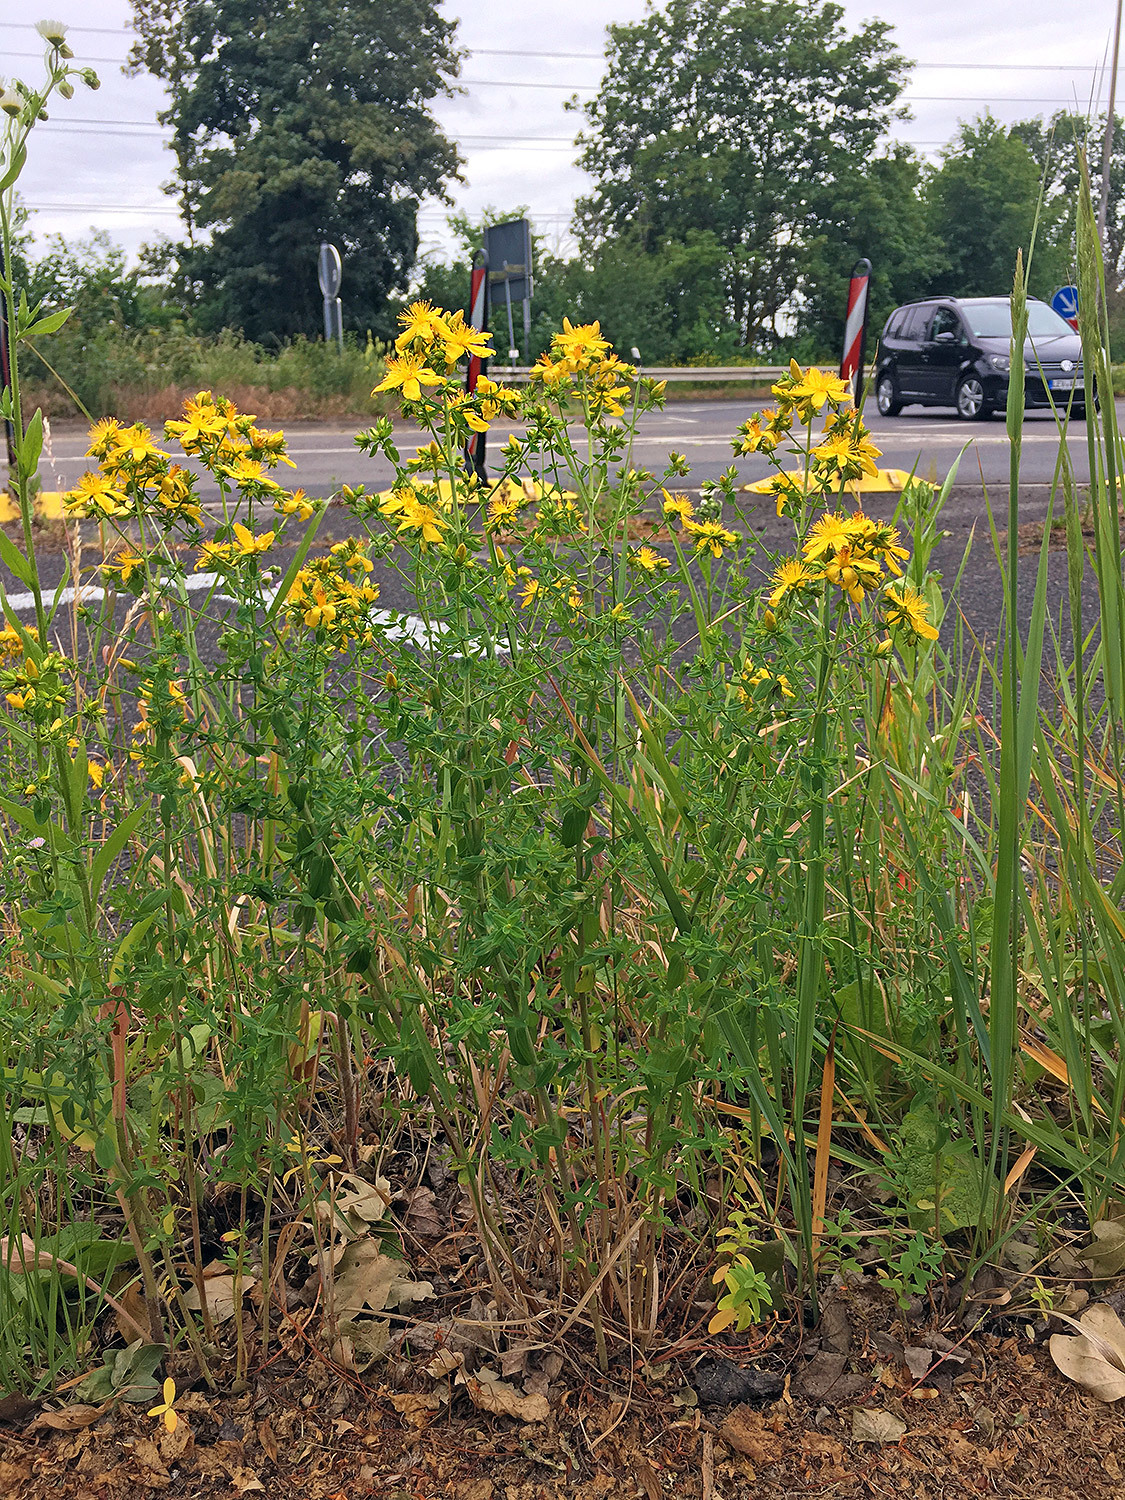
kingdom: Plantae
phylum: Tracheophyta
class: Magnoliopsida
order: Malpighiales
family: Hypericaceae
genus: Hypericum
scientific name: Hypericum perforatum
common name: Common st. johnswort
